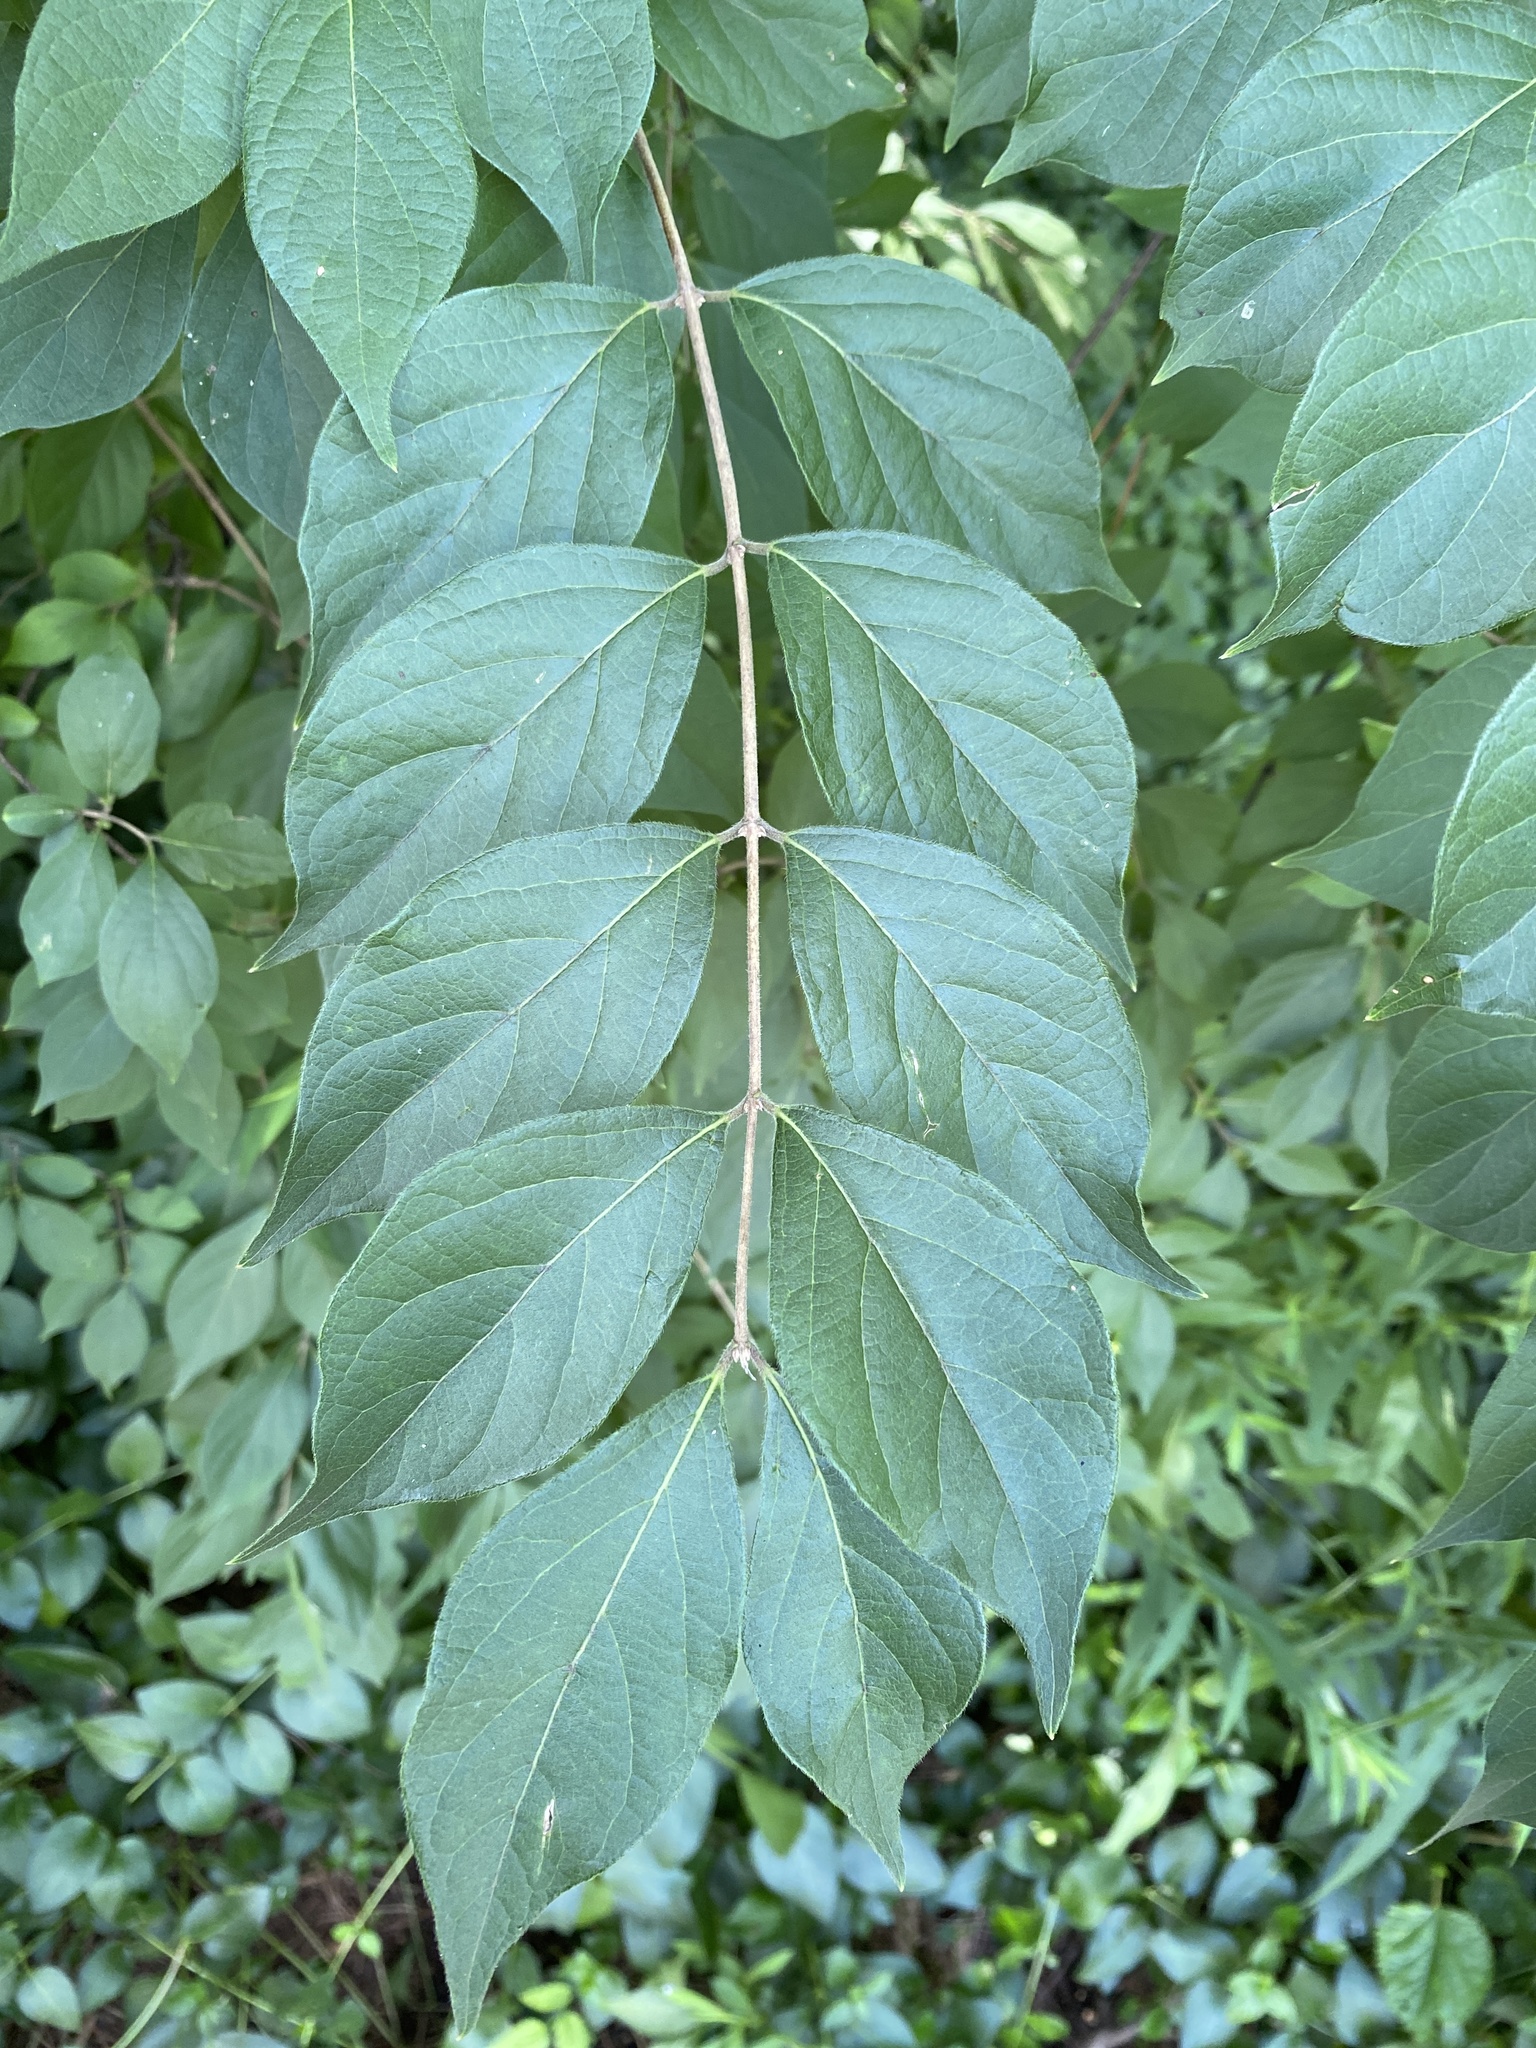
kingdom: Plantae
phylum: Tracheophyta
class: Magnoliopsida
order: Dipsacales
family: Caprifoliaceae
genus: Lonicera
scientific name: Lonicera maackii
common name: Amur honeysuckle
